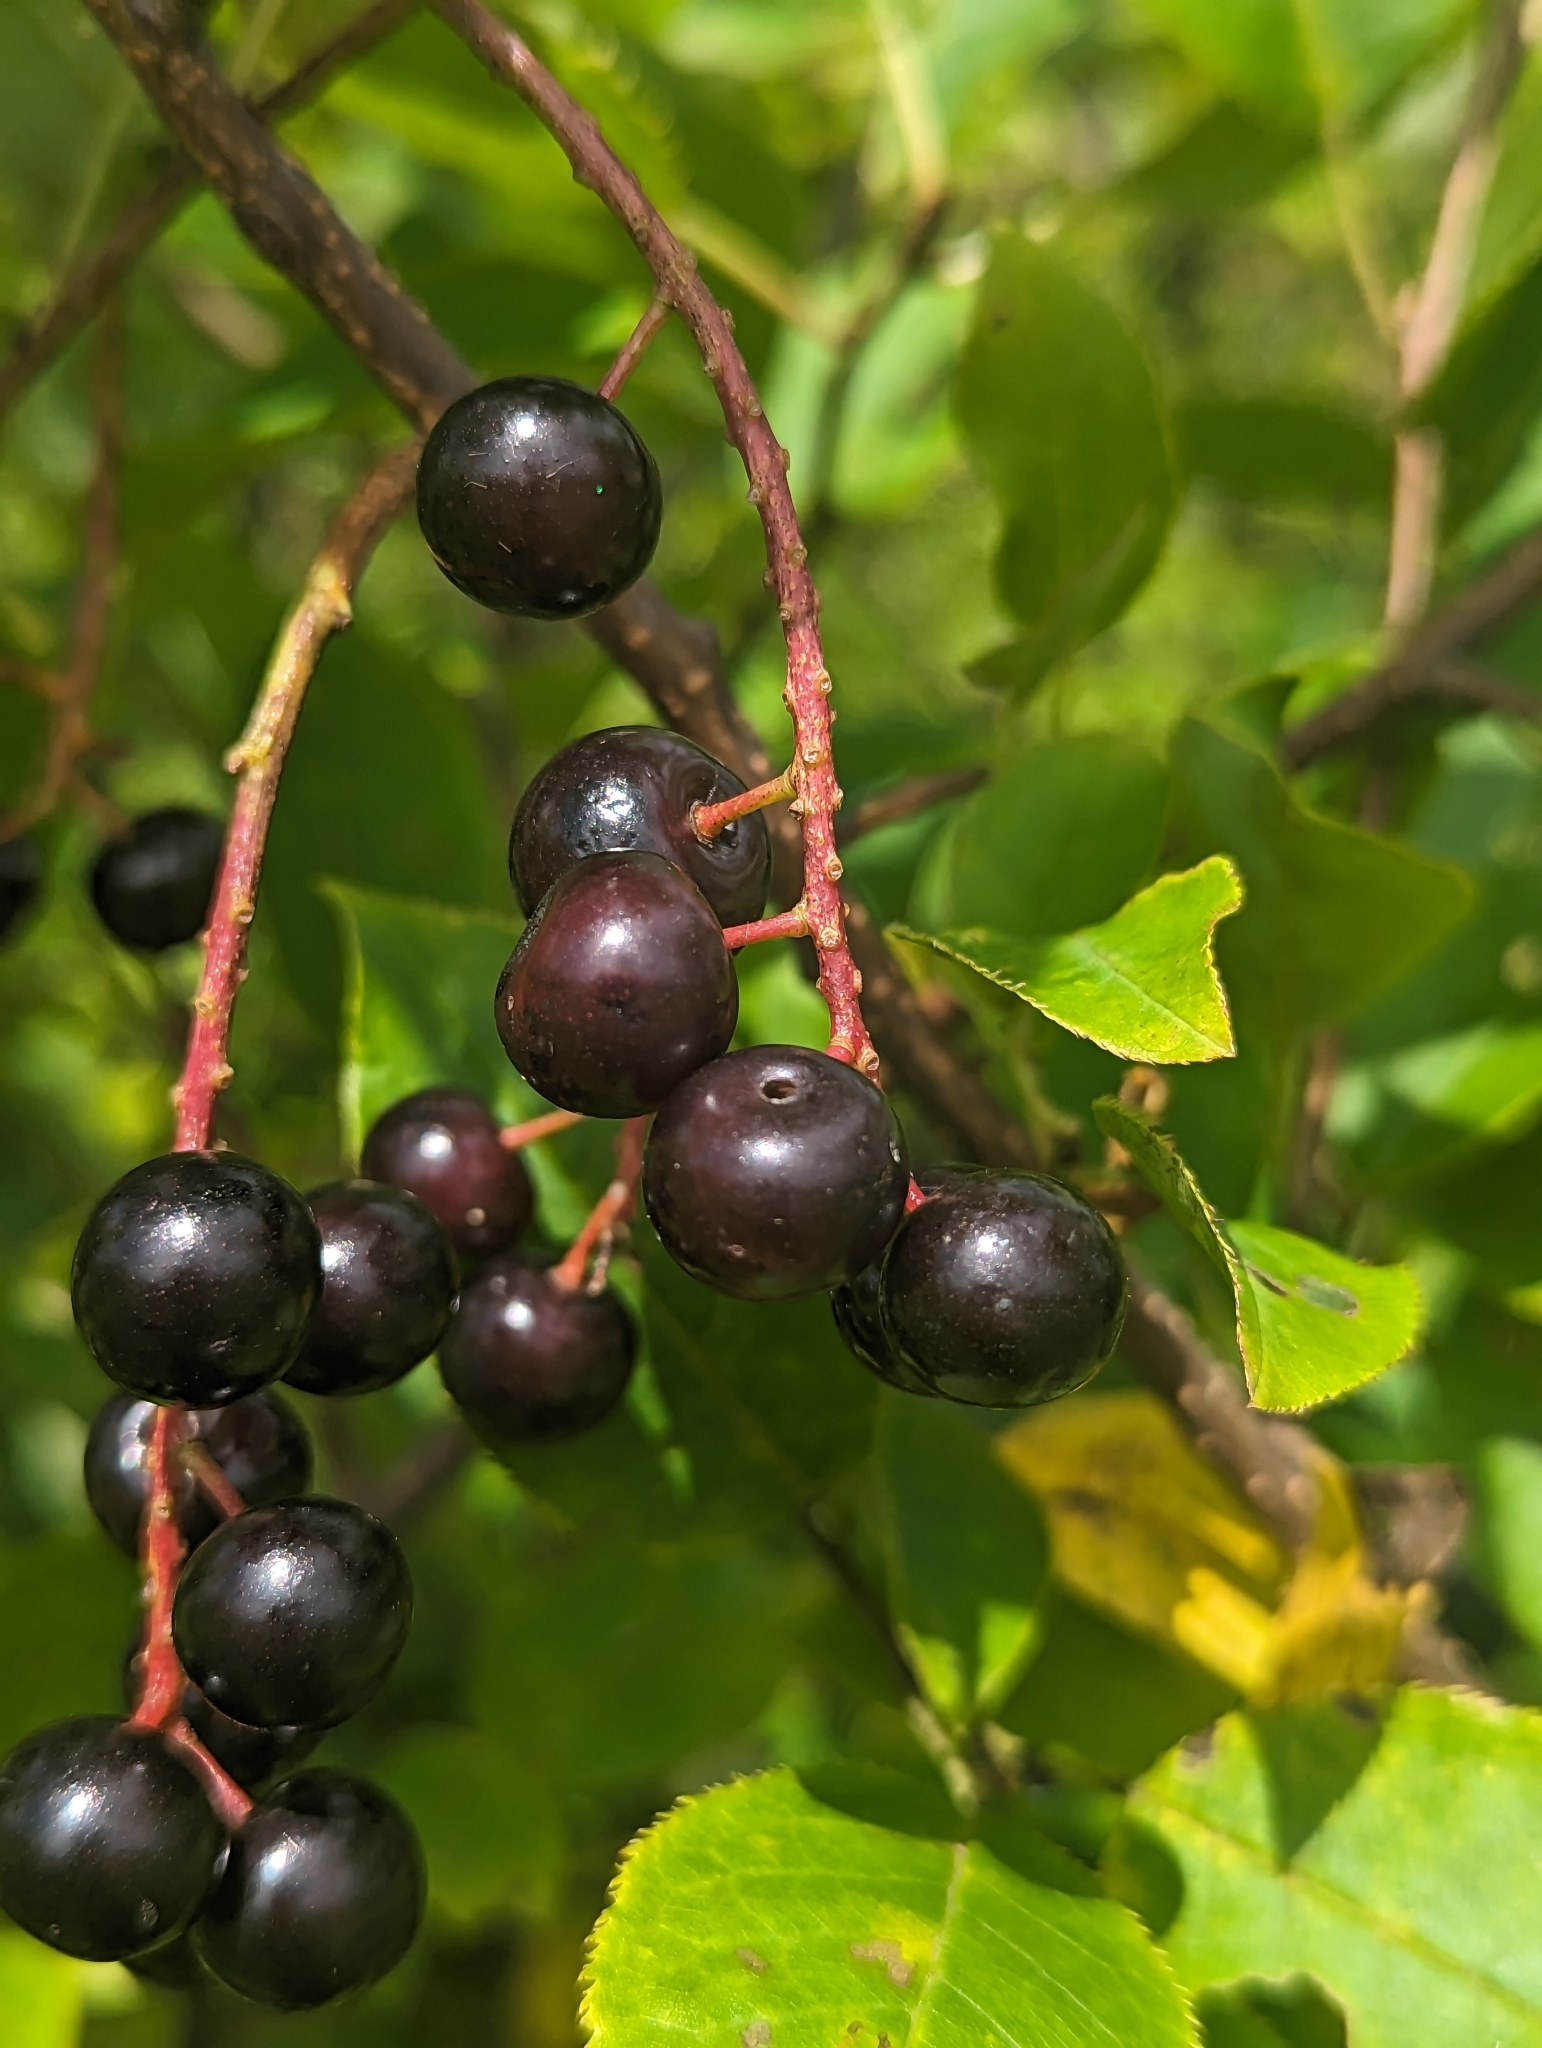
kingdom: Plantae
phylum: Tracheophyta
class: Magnoliopsida
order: Rosales
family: Rosaceae
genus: Prunus
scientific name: Prunus virginiana
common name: Chokecherry
